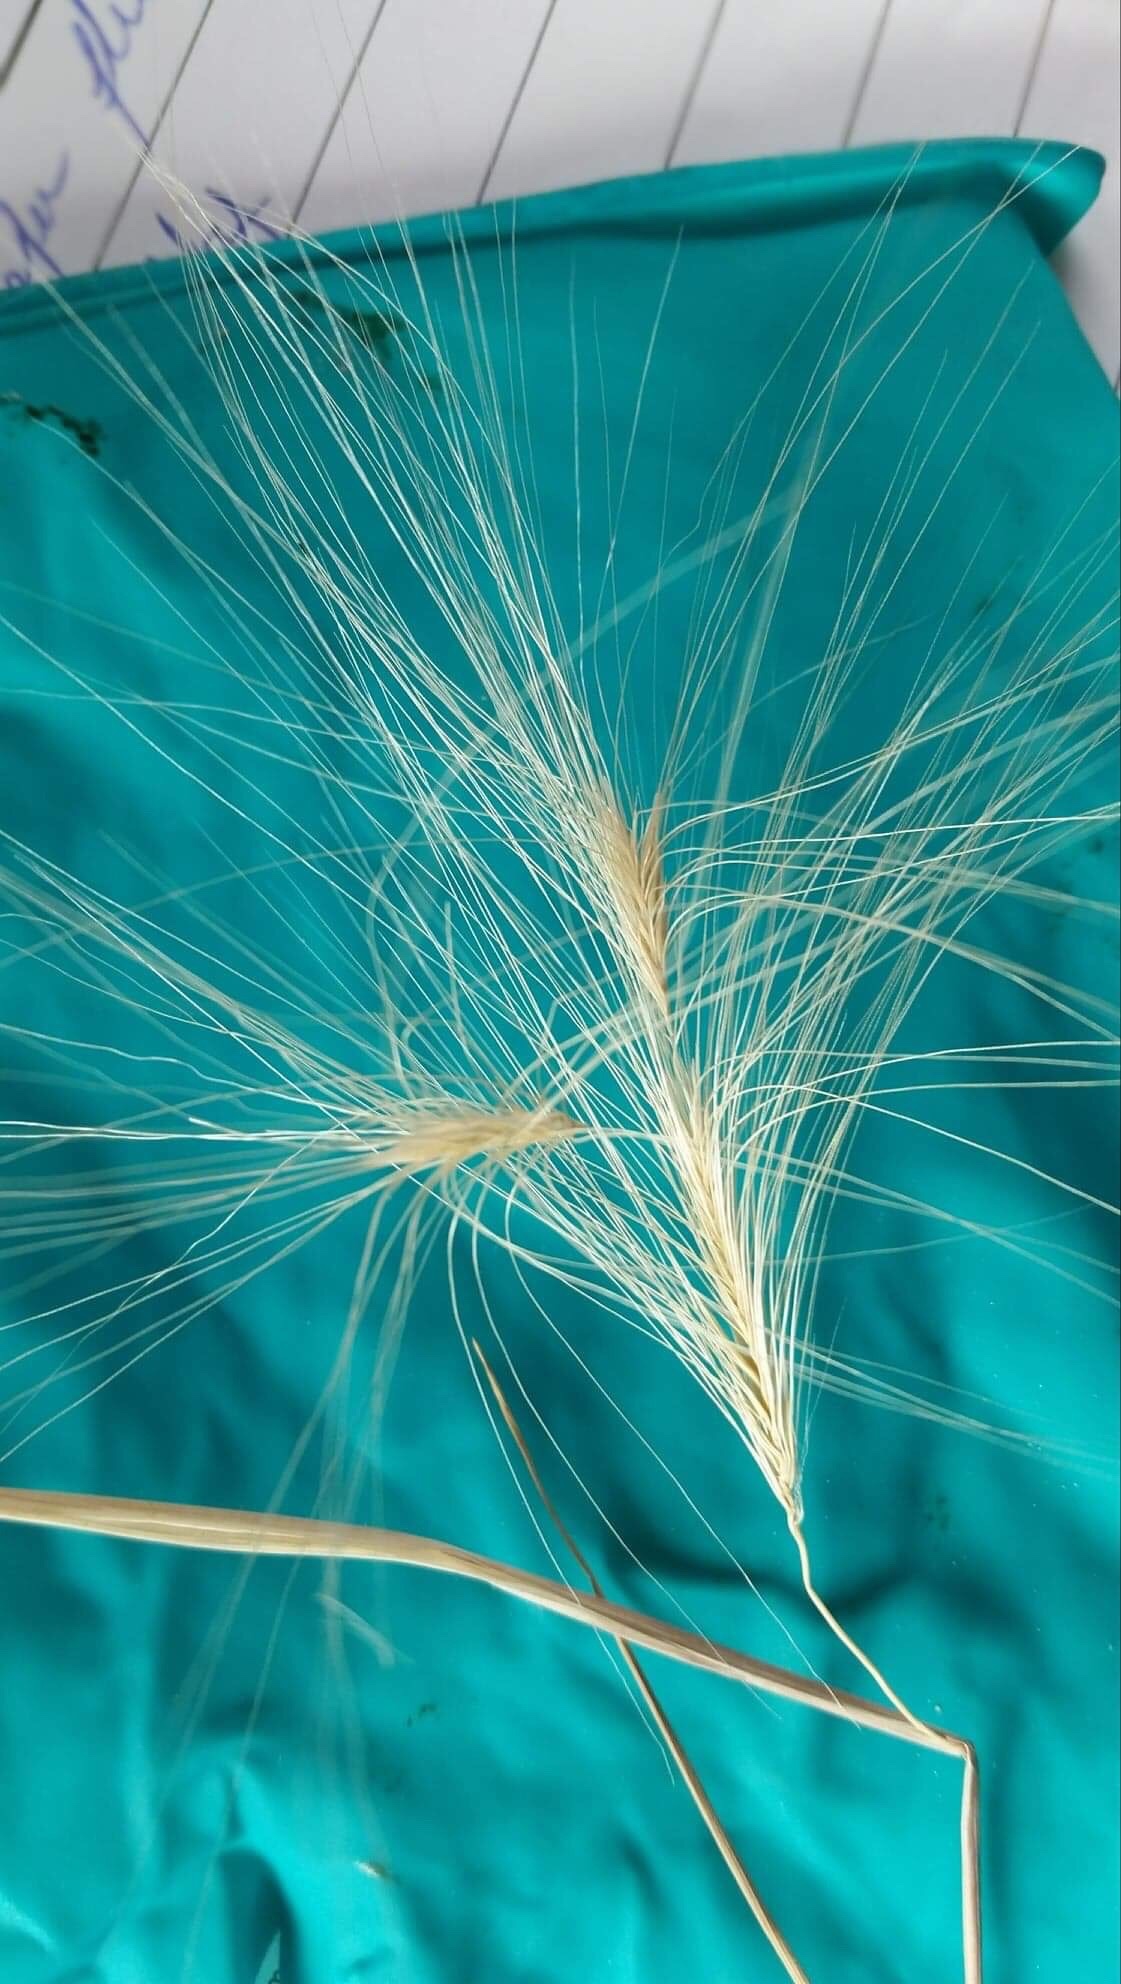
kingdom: Plantae
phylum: Tracheophyta
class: Liliopsida
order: Poales
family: Poaceae
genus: Hordeum
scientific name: Hordeum jubatum
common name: Foxtail barley
